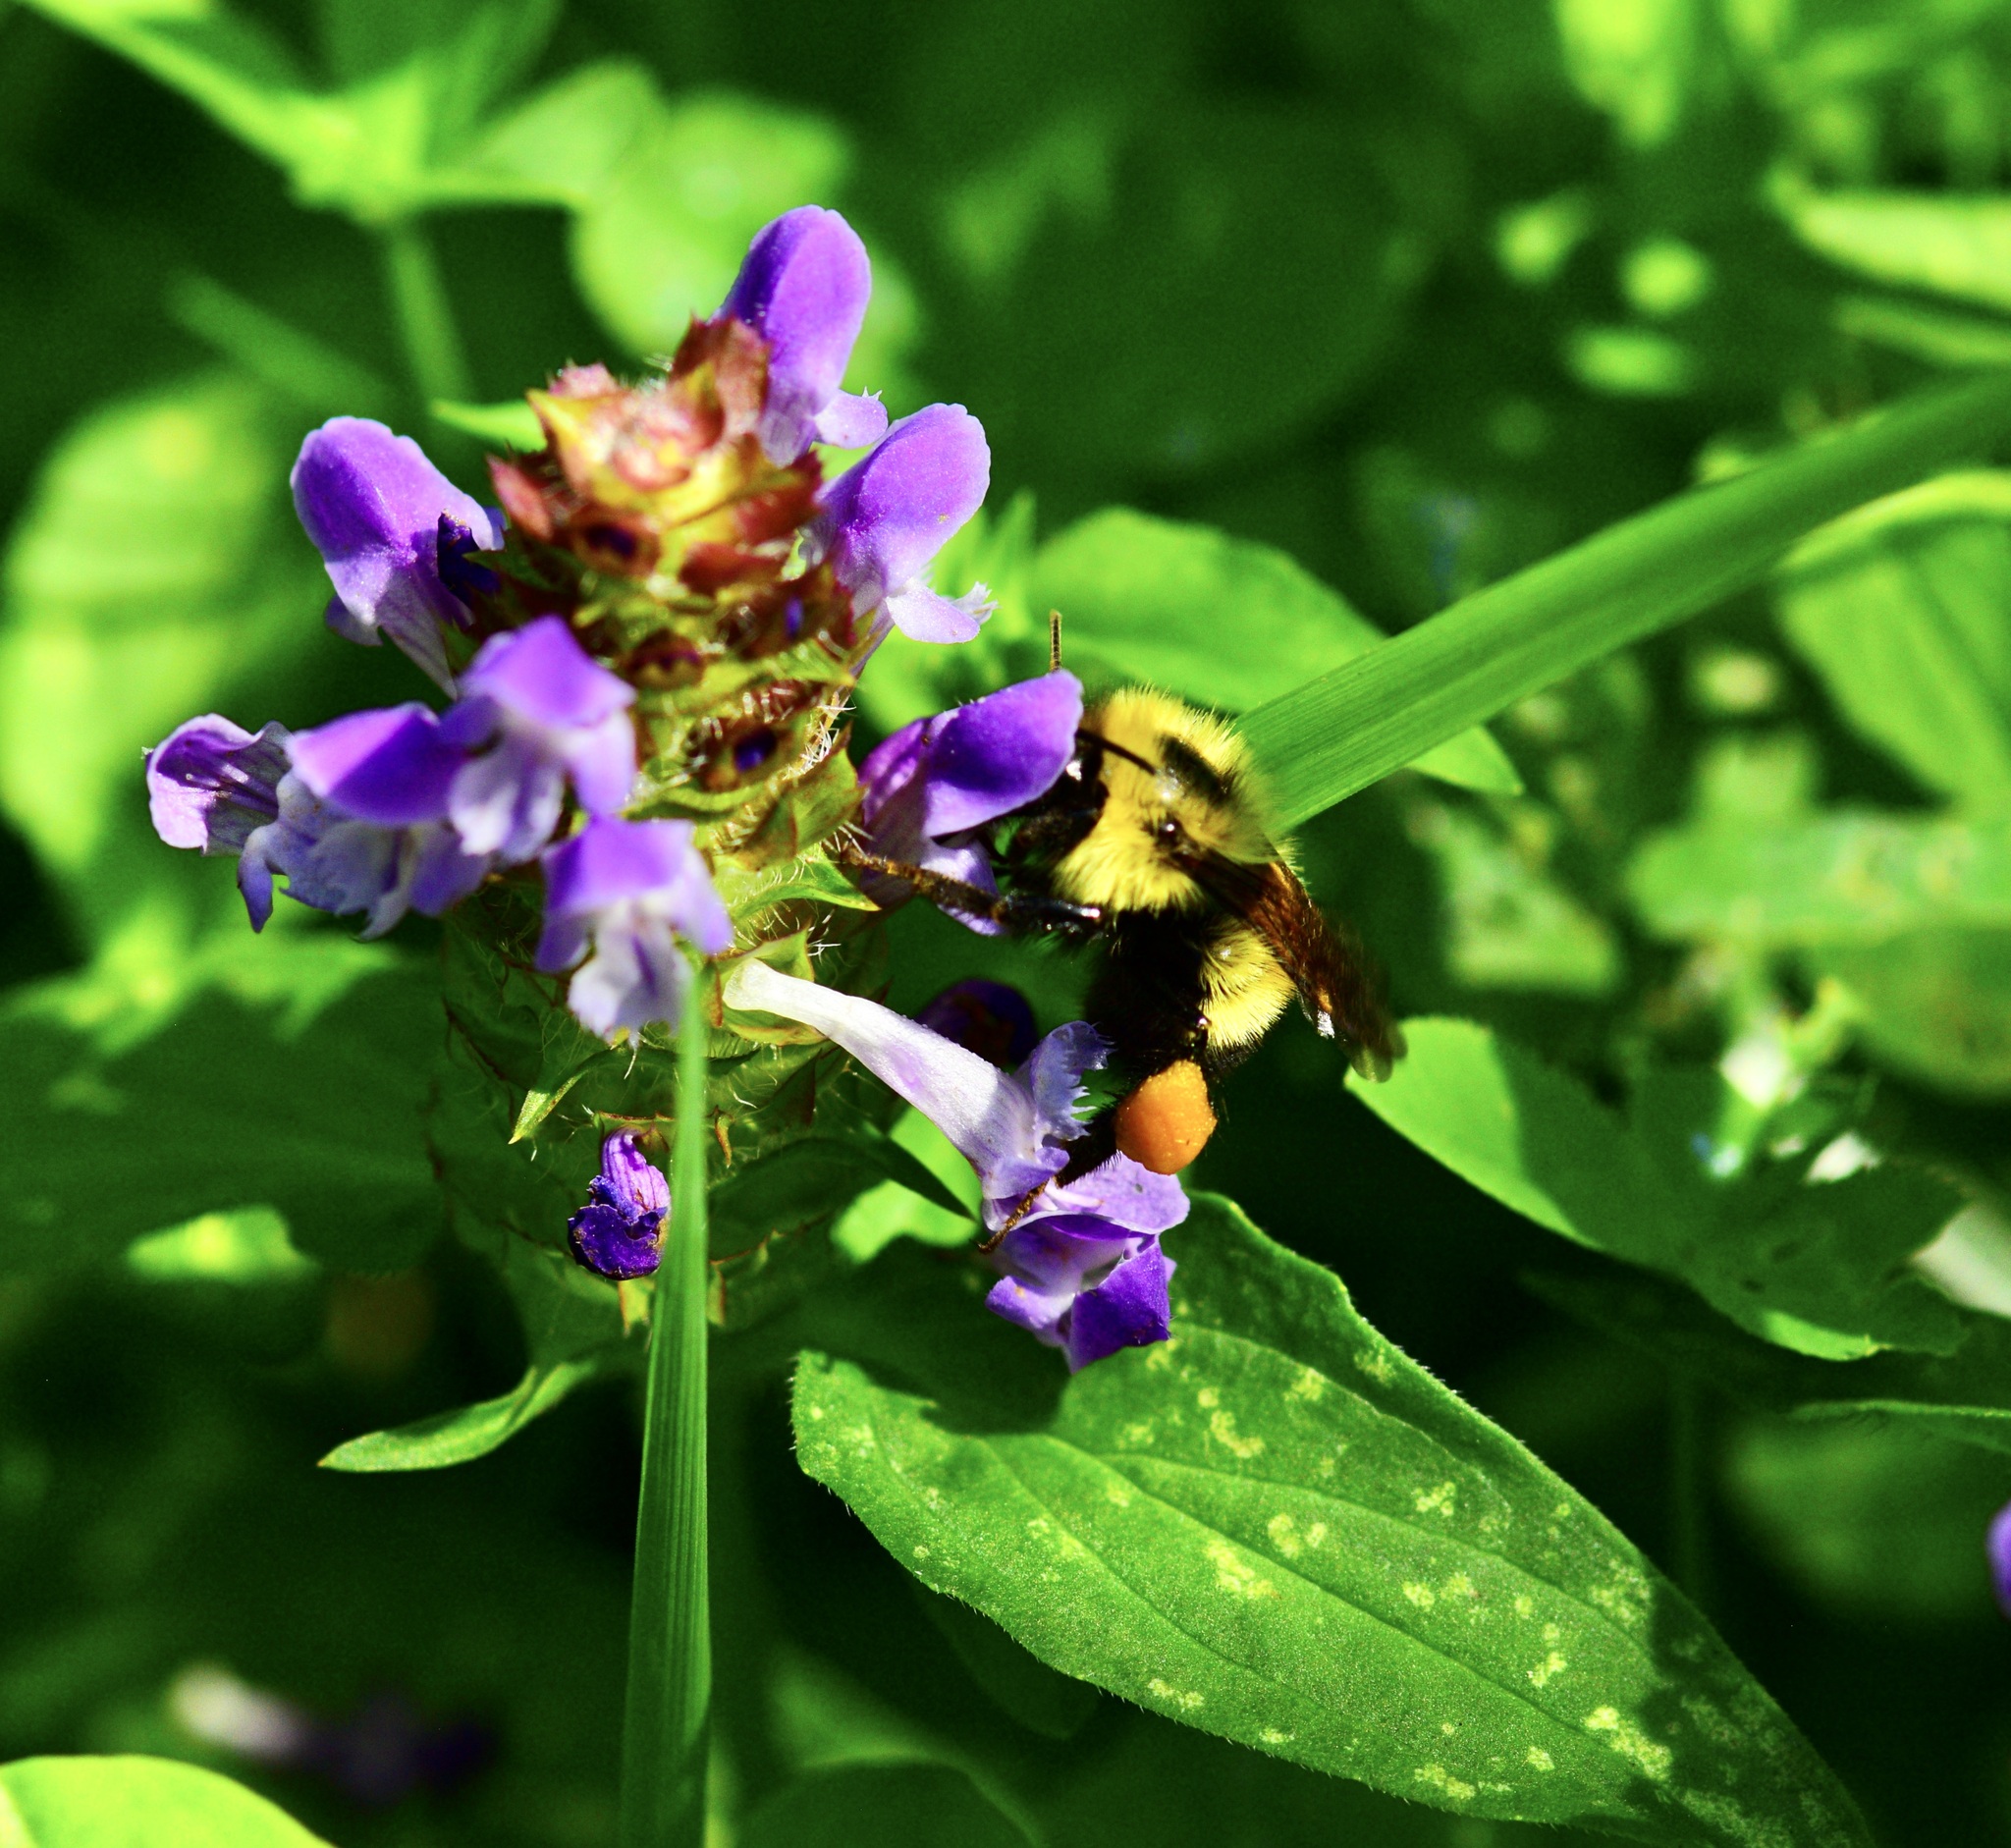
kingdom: Animalia
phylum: Arthropoda
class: Insecta
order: Hymenoptera
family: Apidae
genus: Pyrobombus
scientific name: Pyrobombus
